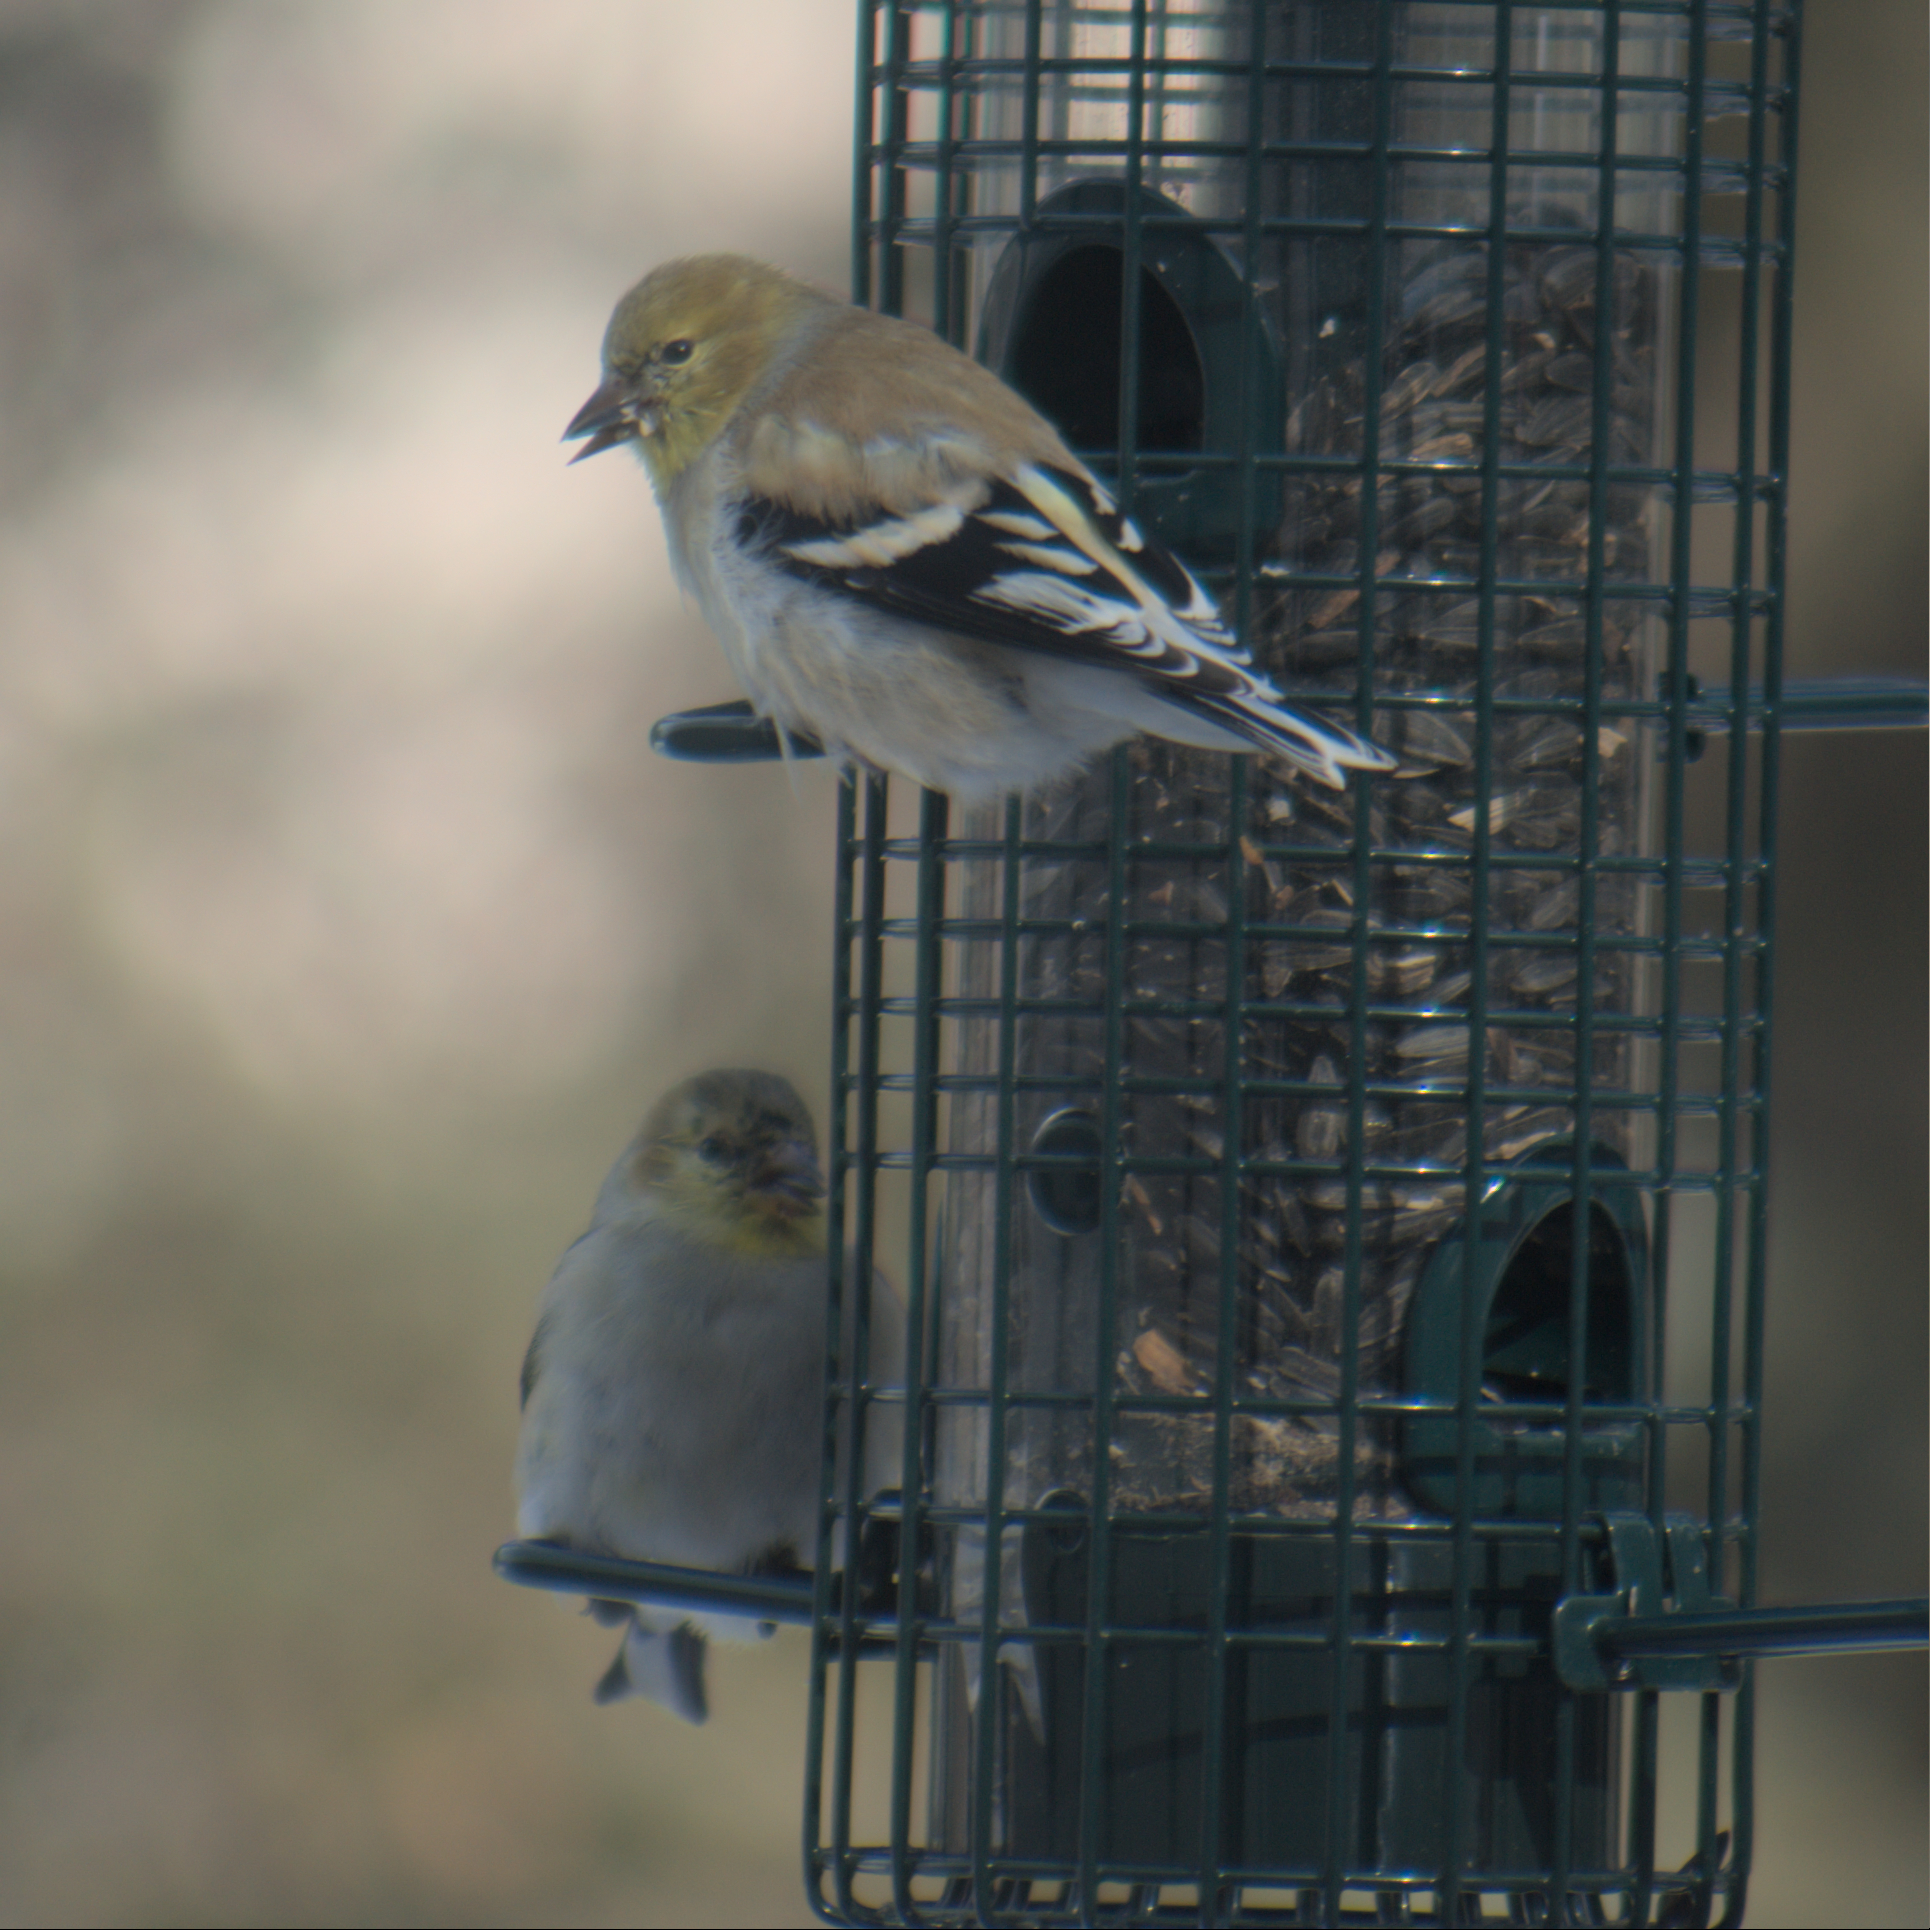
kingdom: Animalia
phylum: Chordata
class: Aves
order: Passeriformes
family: Fringillidae
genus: Spinus
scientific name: Spinus tristis
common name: American goldfinch
